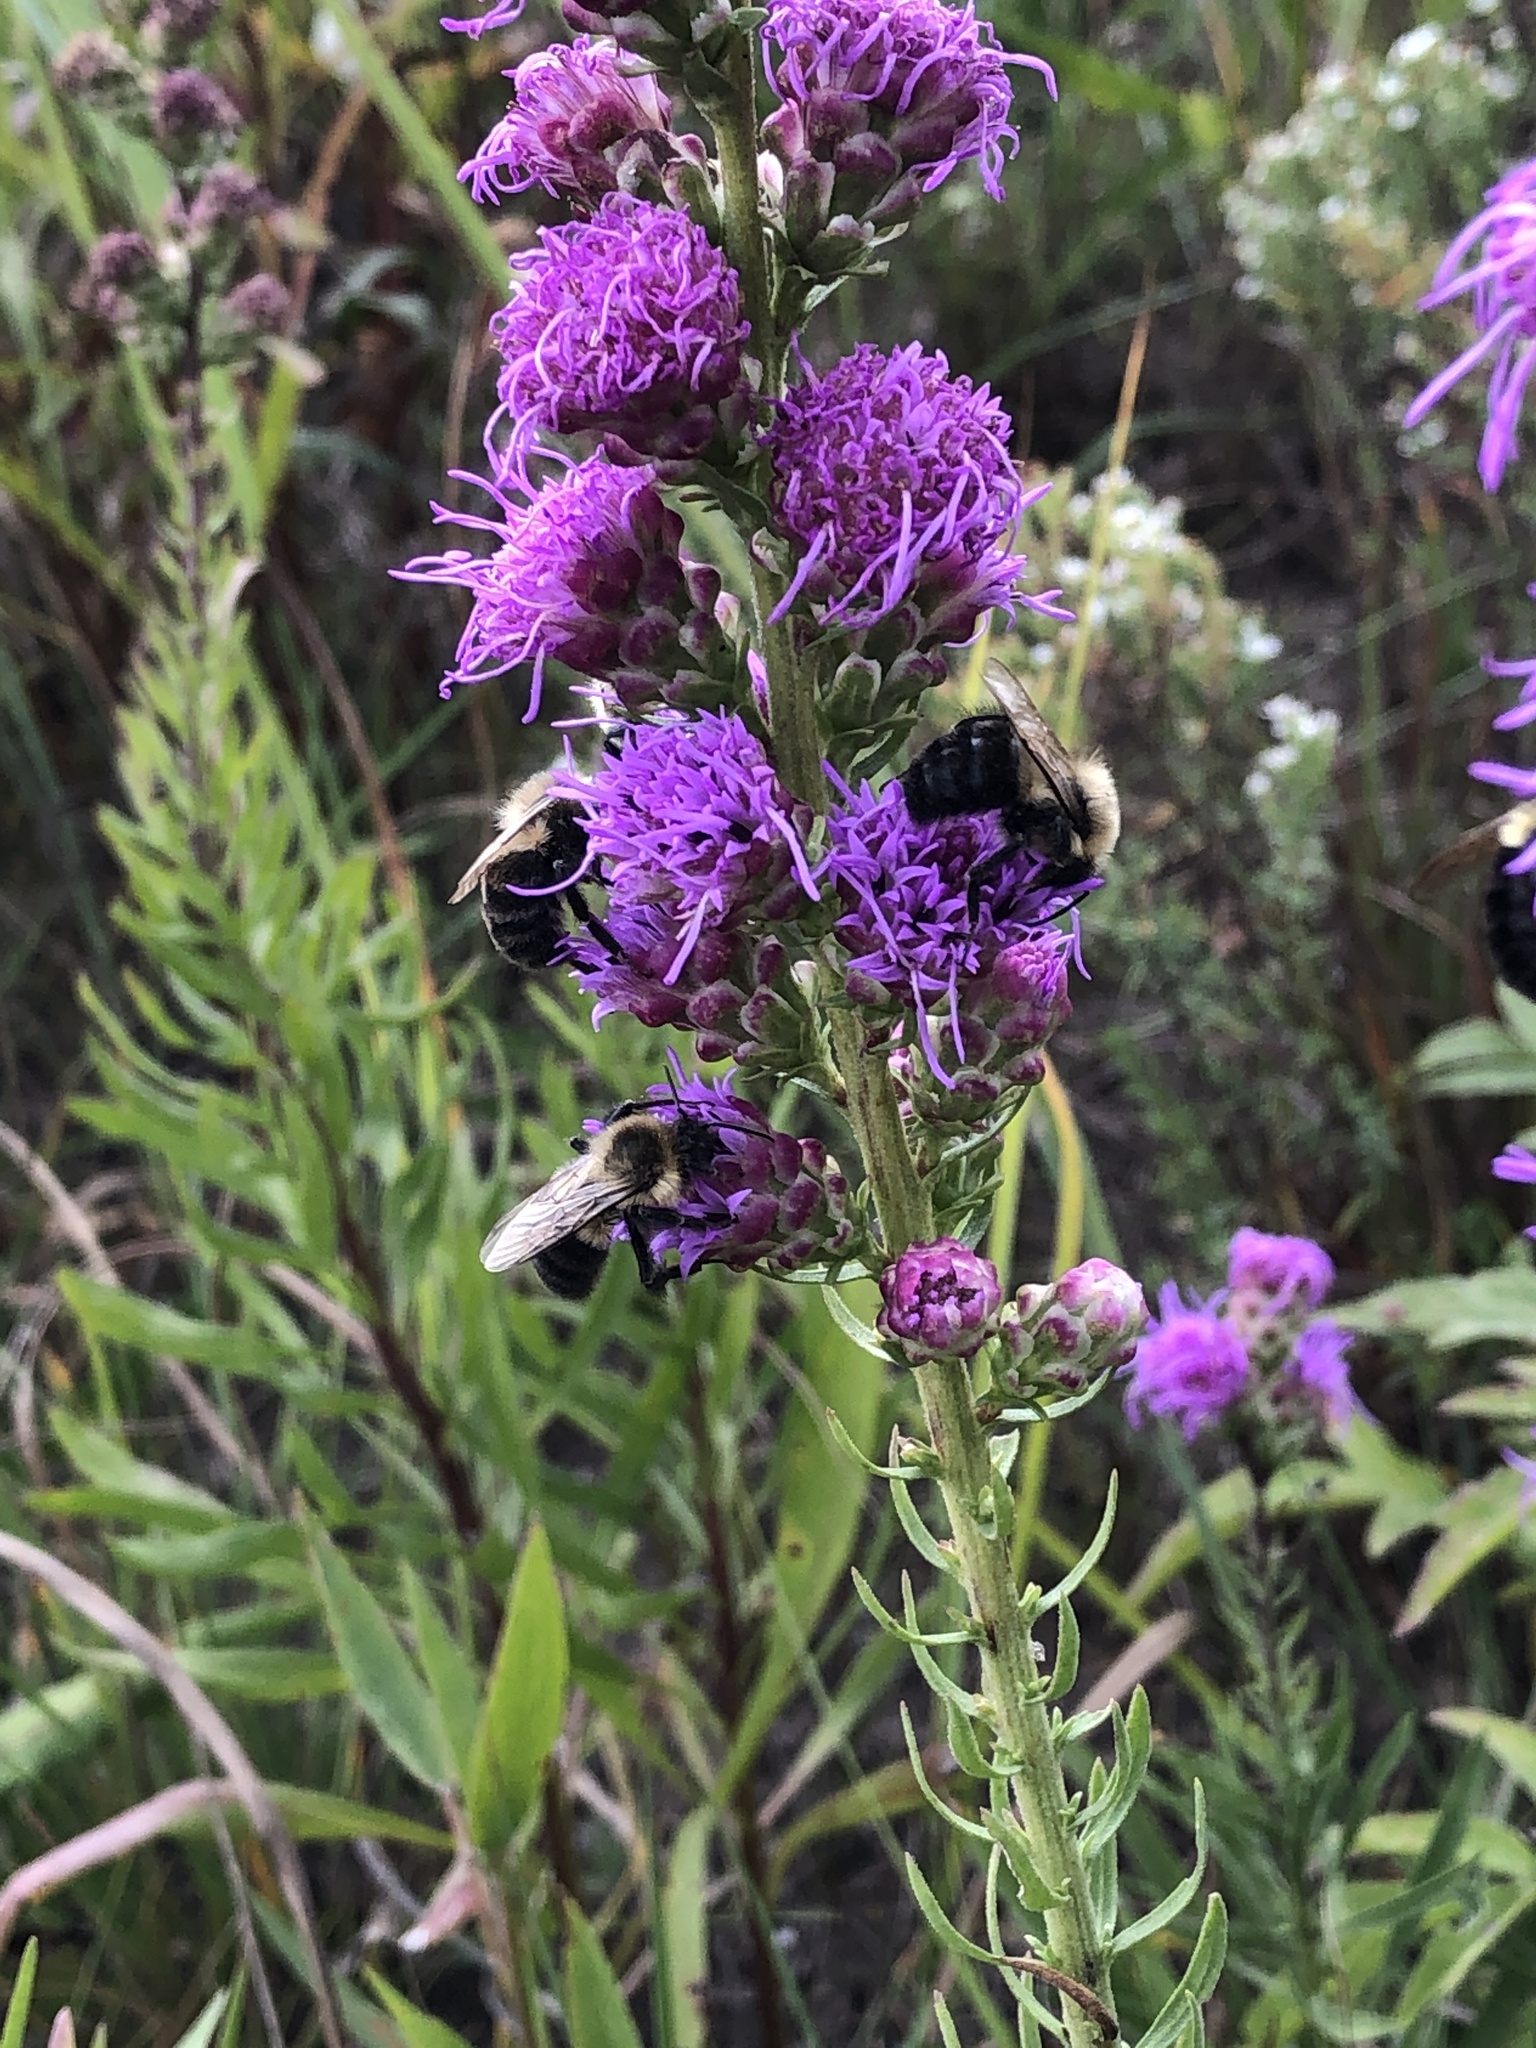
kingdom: Animalia
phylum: Arthropoda
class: Insecta
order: Hymenoptera
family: Apidae
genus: Bombus
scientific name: Bombus impatiens
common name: Common eastern bumble bee
